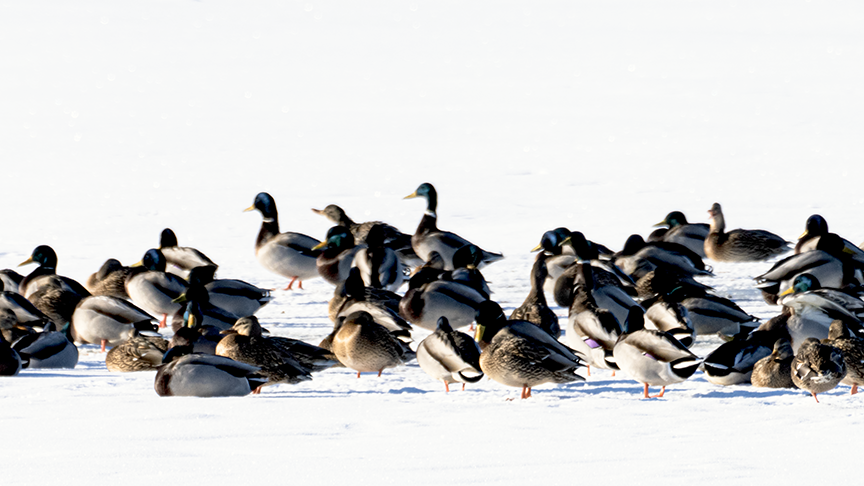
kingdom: Animalia
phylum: Chordata
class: Aves
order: Anseriformes
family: Anatidae
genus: Anas
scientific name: Anas platyrhynchos
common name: Mallard
